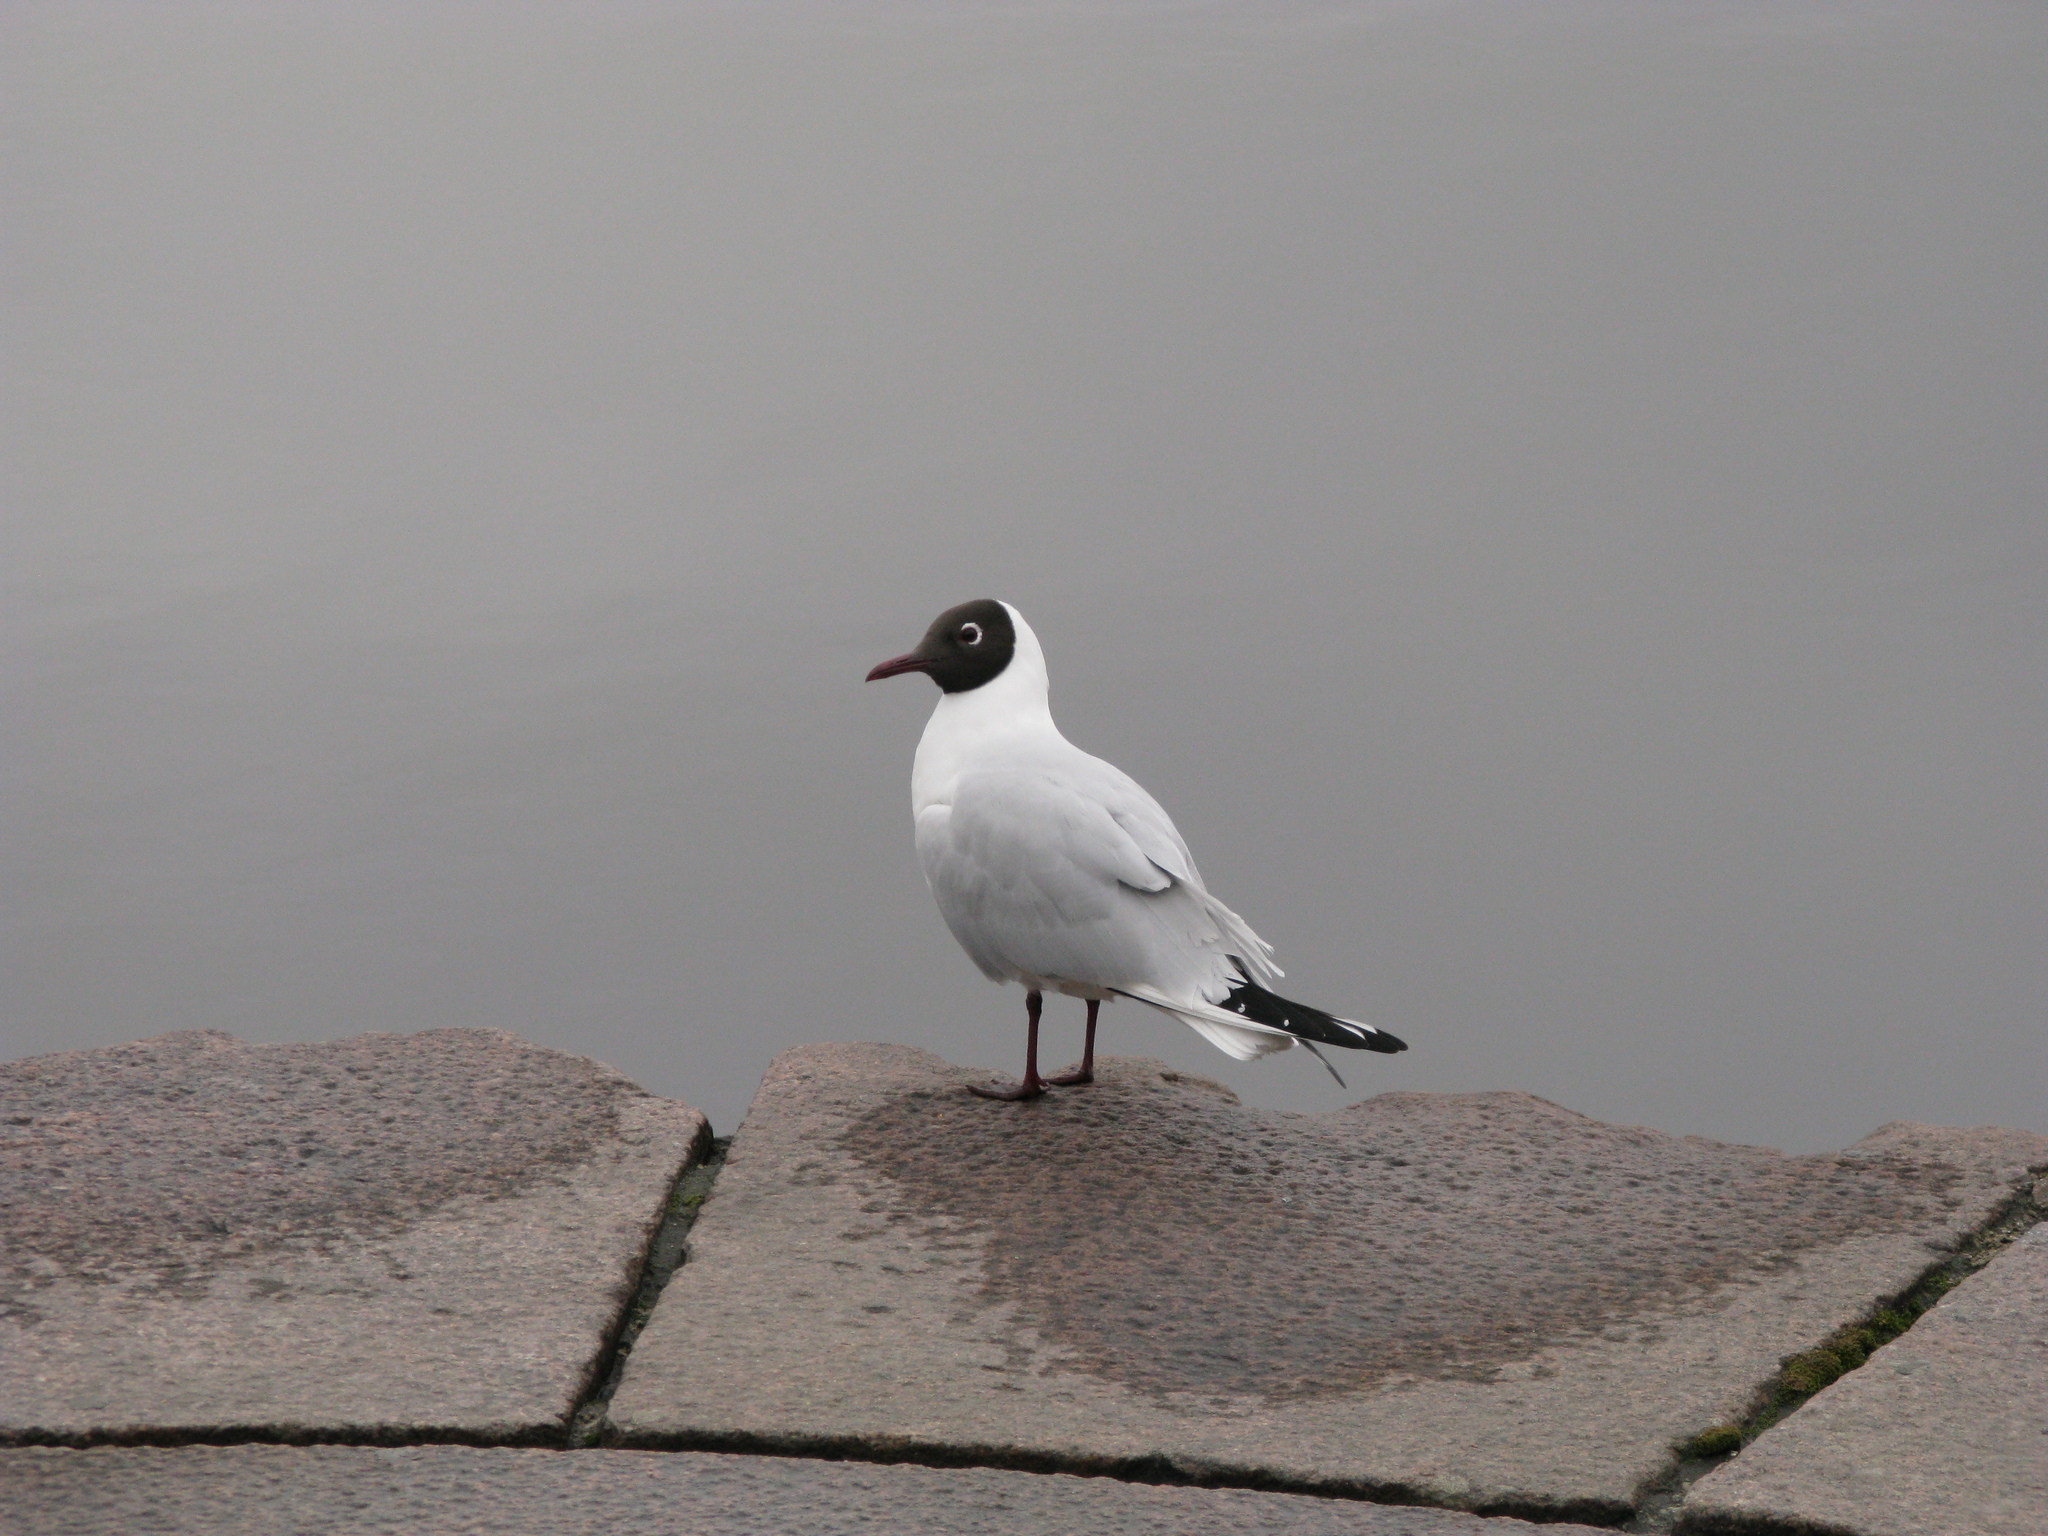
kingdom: Animalia
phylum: Chordata
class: Aves
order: Charadriiformes
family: Laridae
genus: Chroicocephalus
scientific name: Chroicocephalus ridibundus
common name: Black-headed gull
